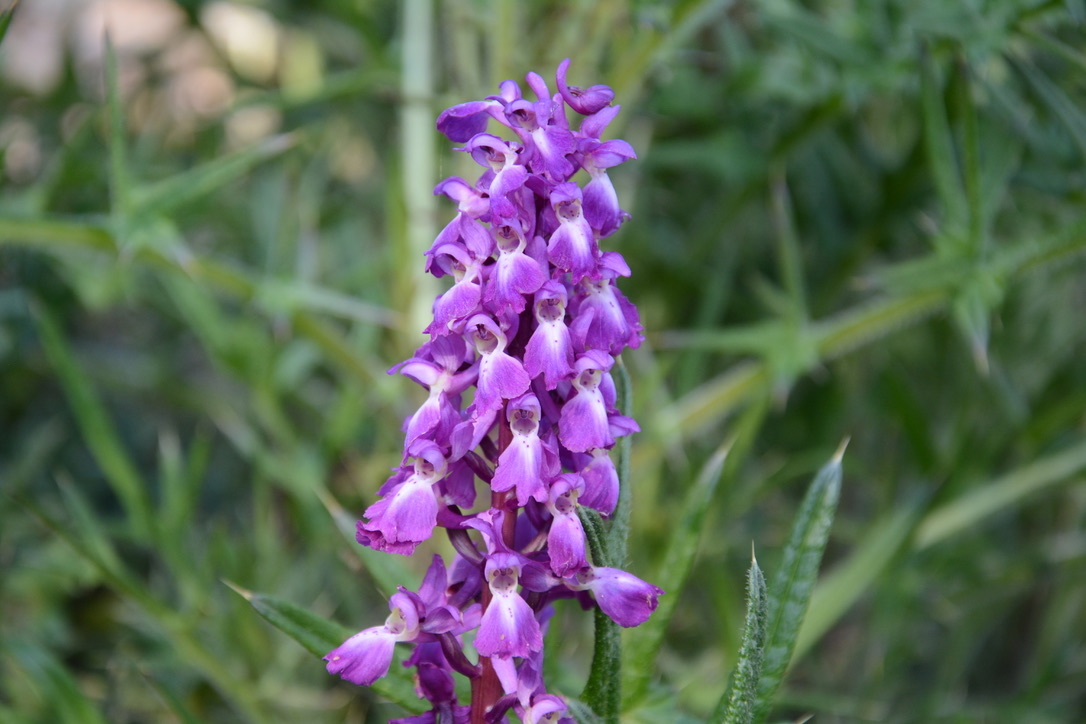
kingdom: Plantae
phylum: Tracheophyta
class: Liliopsida
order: Asparagales
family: Orchidaceae
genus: Orchis
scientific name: Orchis mascula
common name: Early-purple orchid
